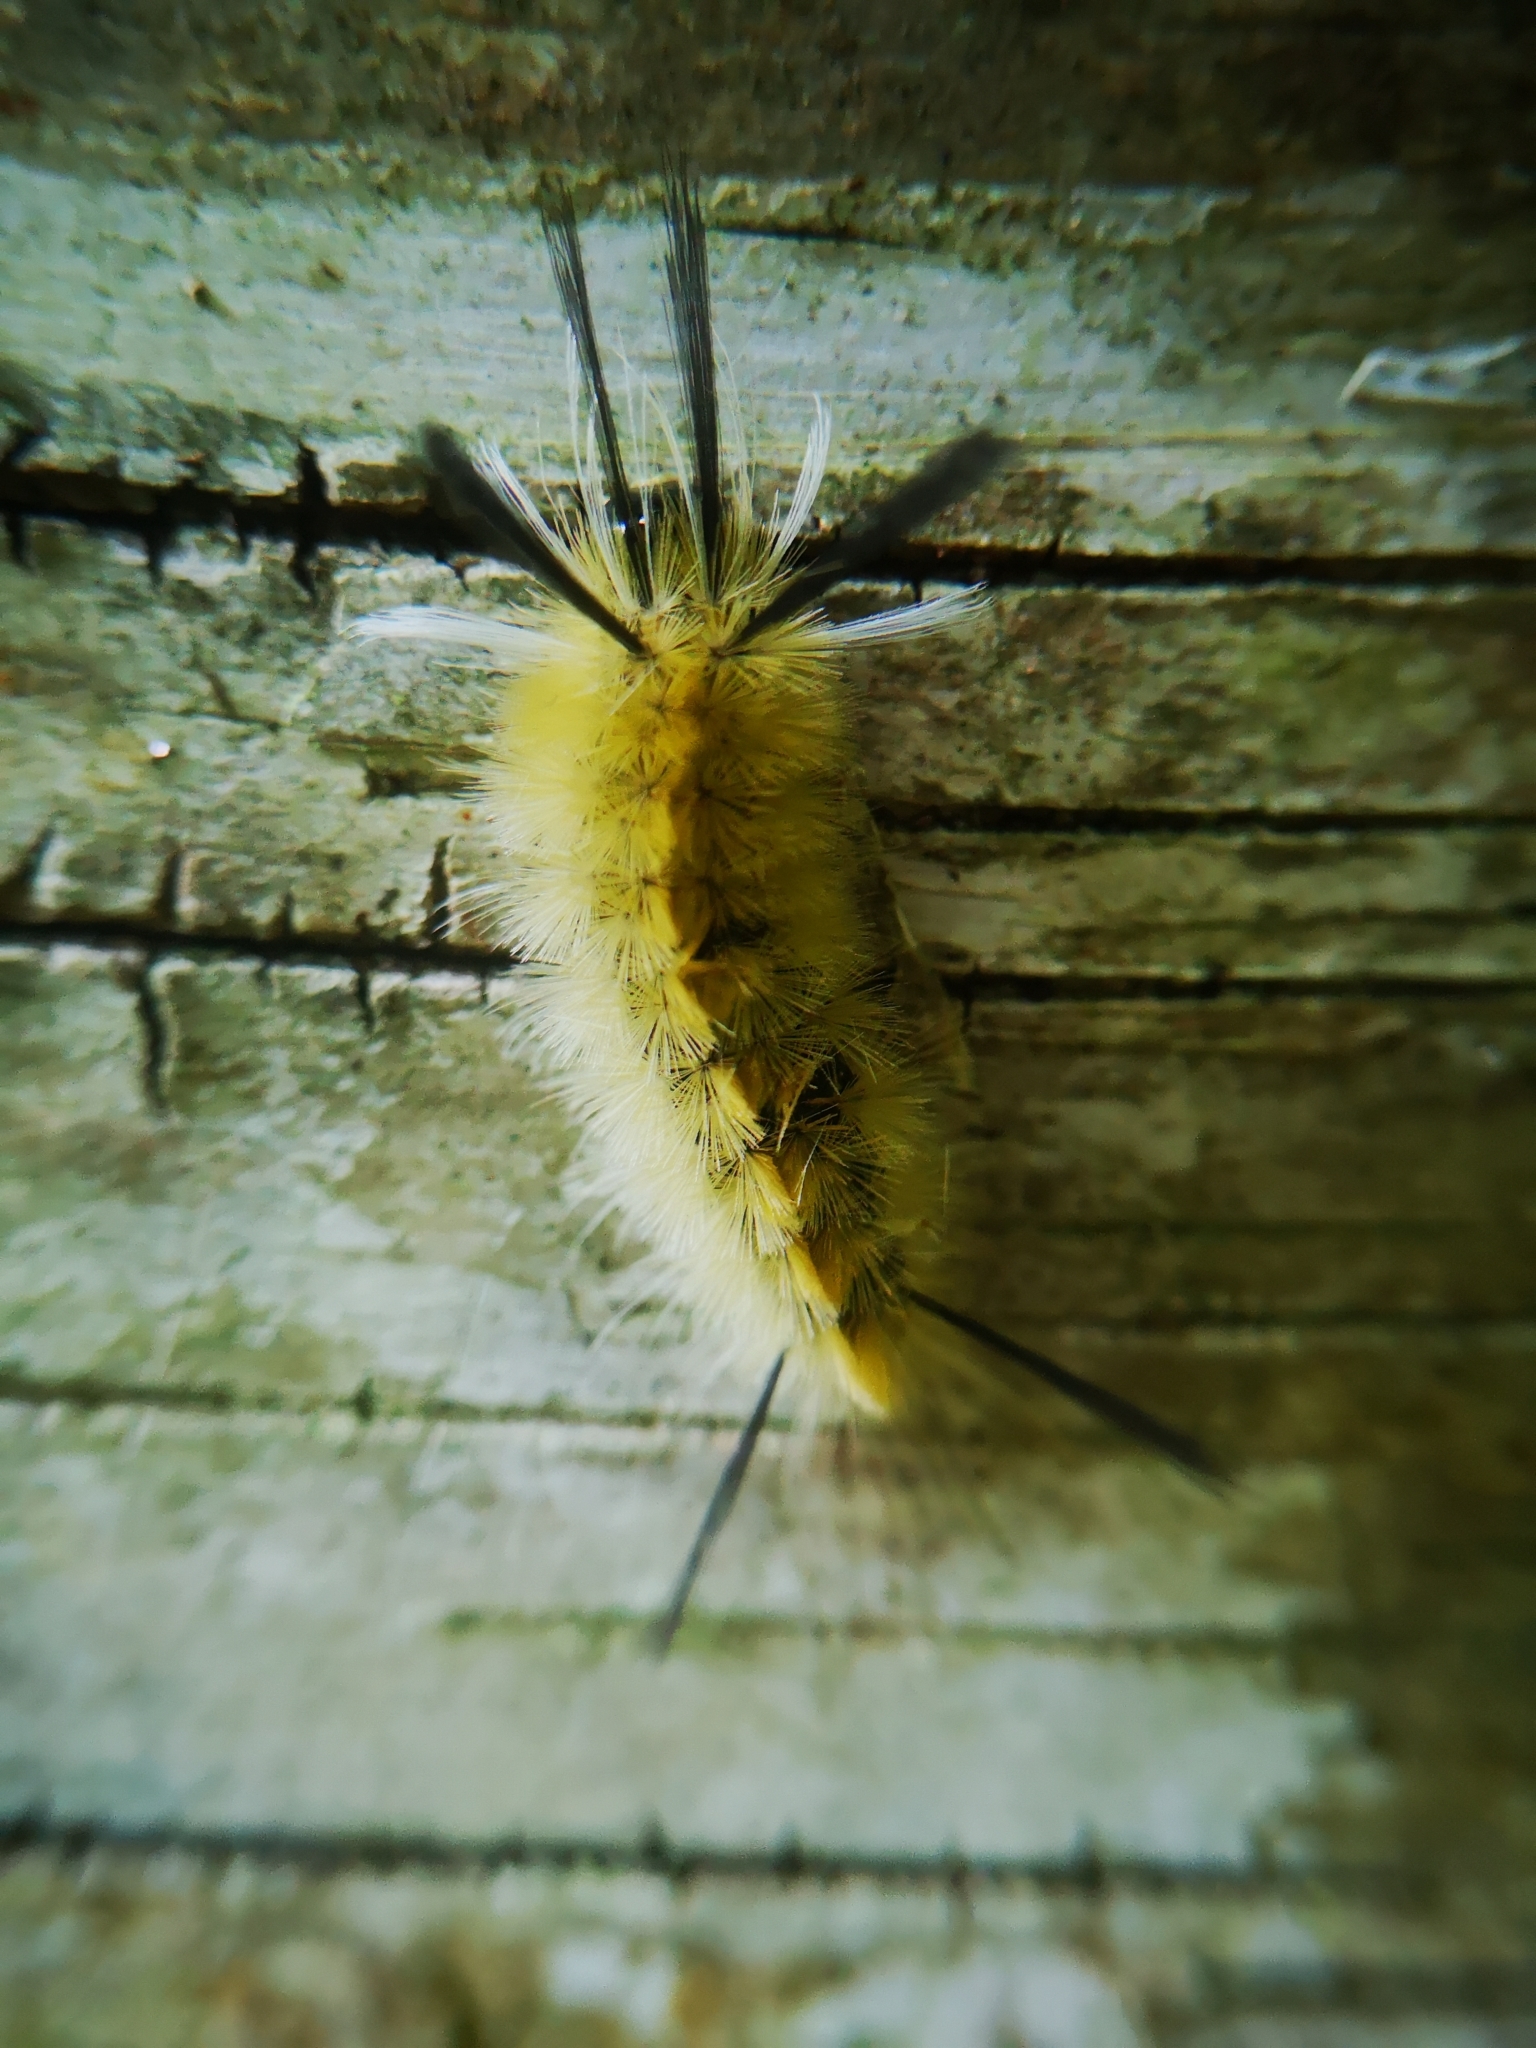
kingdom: Animalia
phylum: Arthropoda
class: Insecta
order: Lepidoptera
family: Erebidae
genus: Halysidota
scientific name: Halysidota tessellaris
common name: Banded tussock moth
